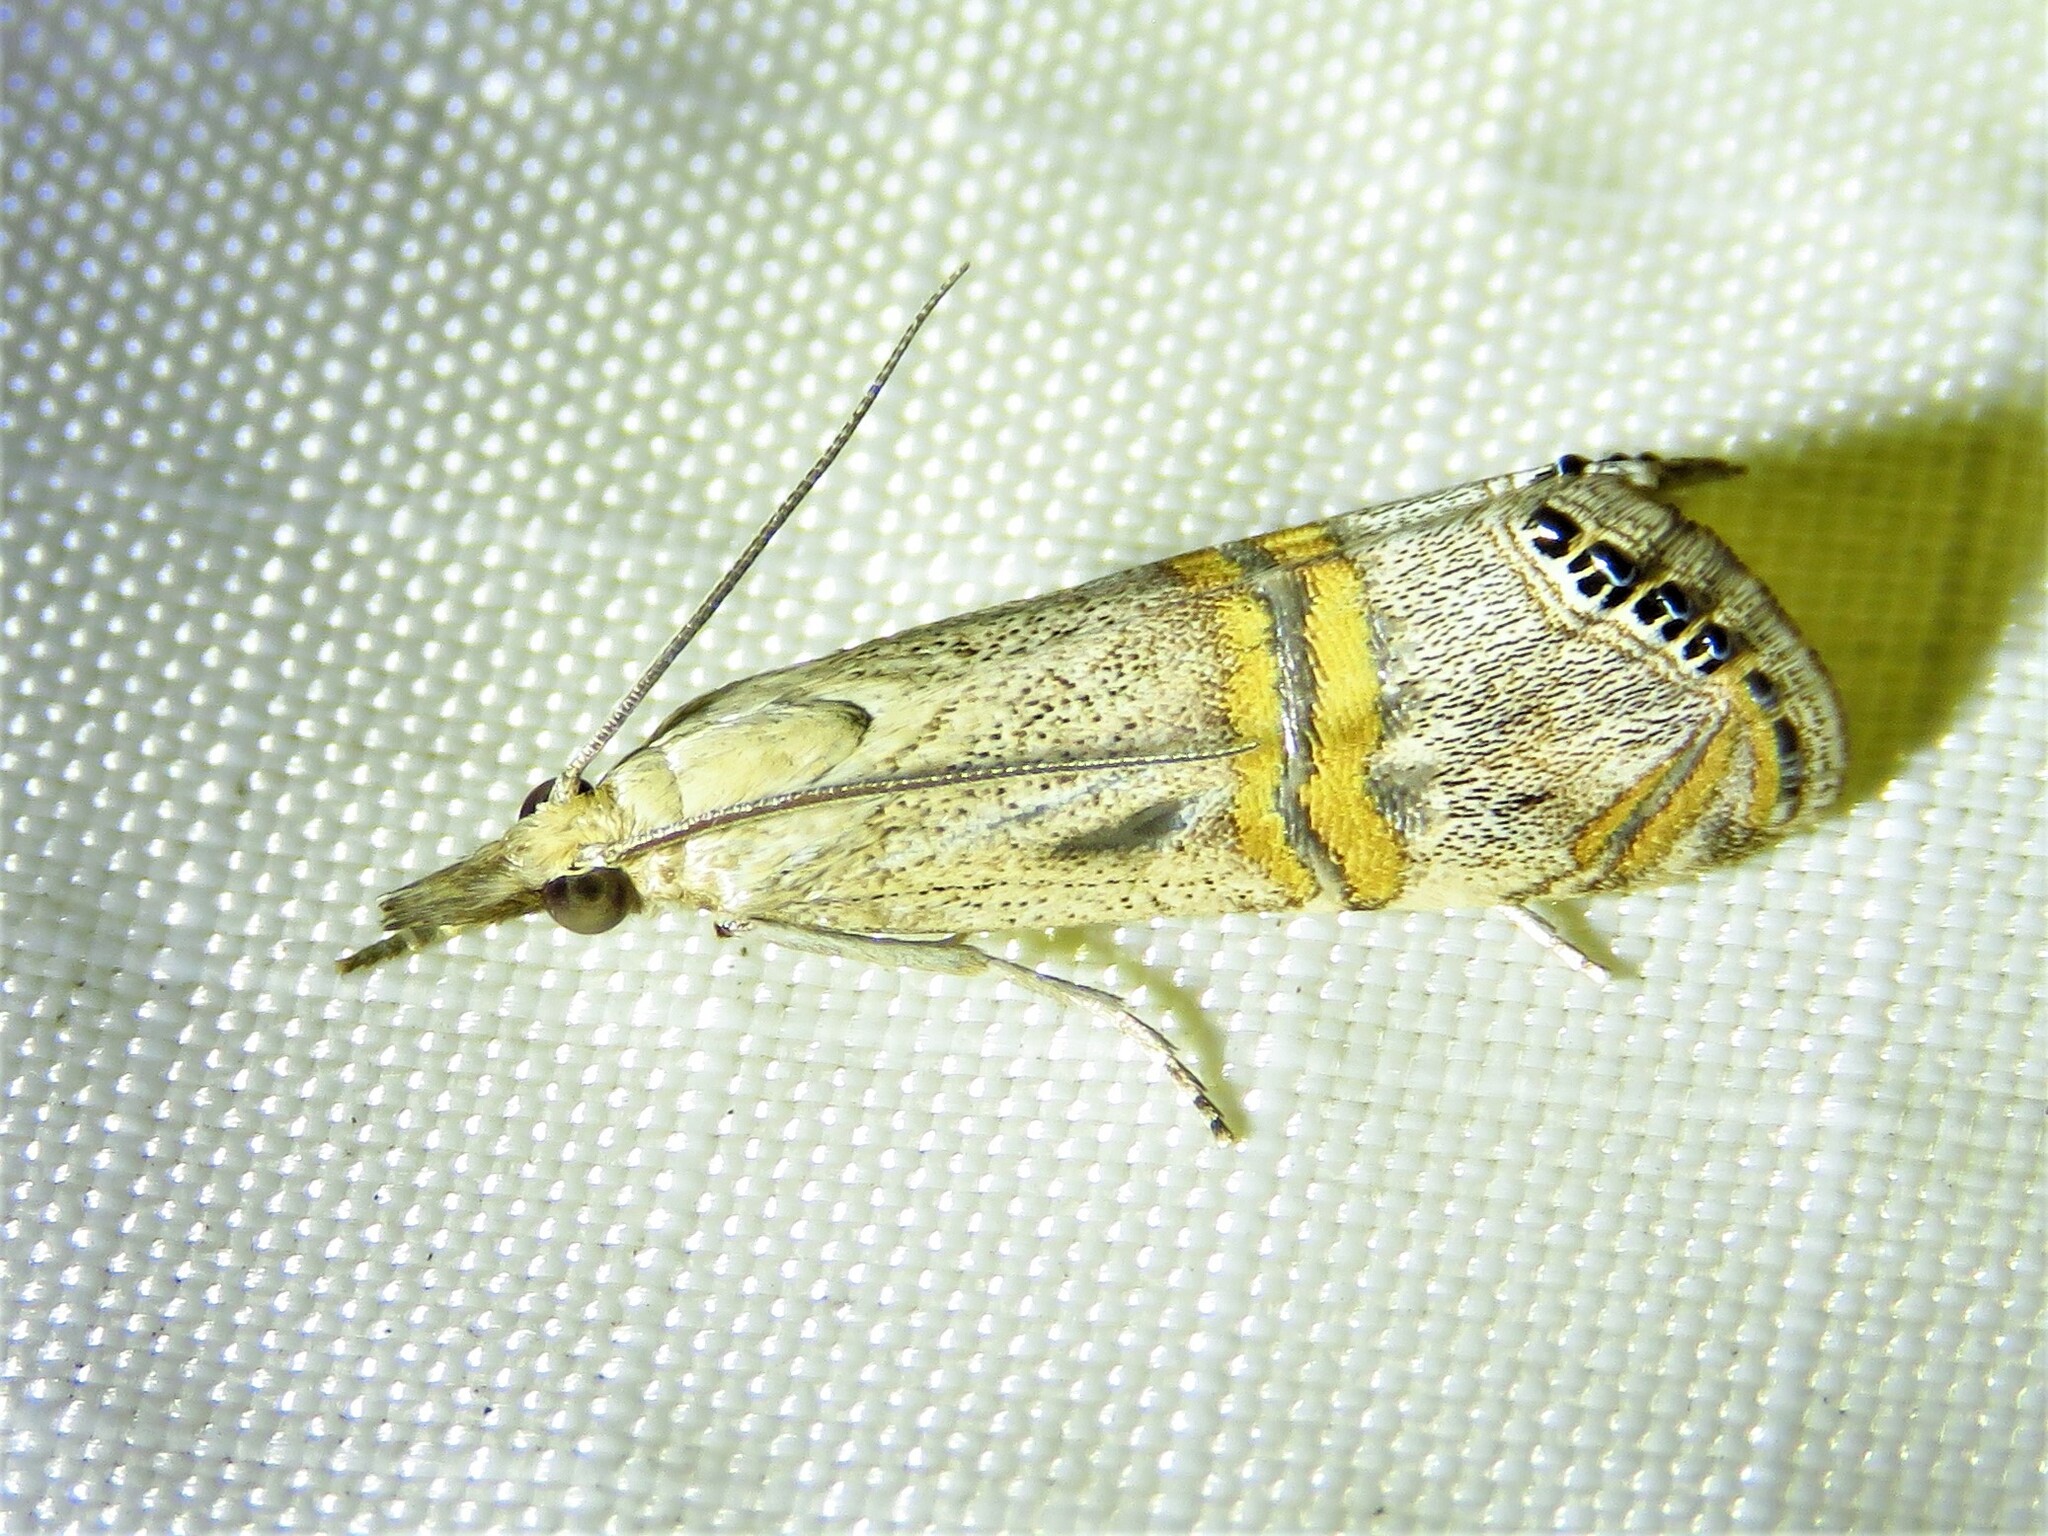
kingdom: Animalia
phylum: Arthropoda
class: Insecta
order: Lepidoptera
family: Crambidae
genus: Euchromius
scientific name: Euchromius ocellea
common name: Necklace veneer moth
